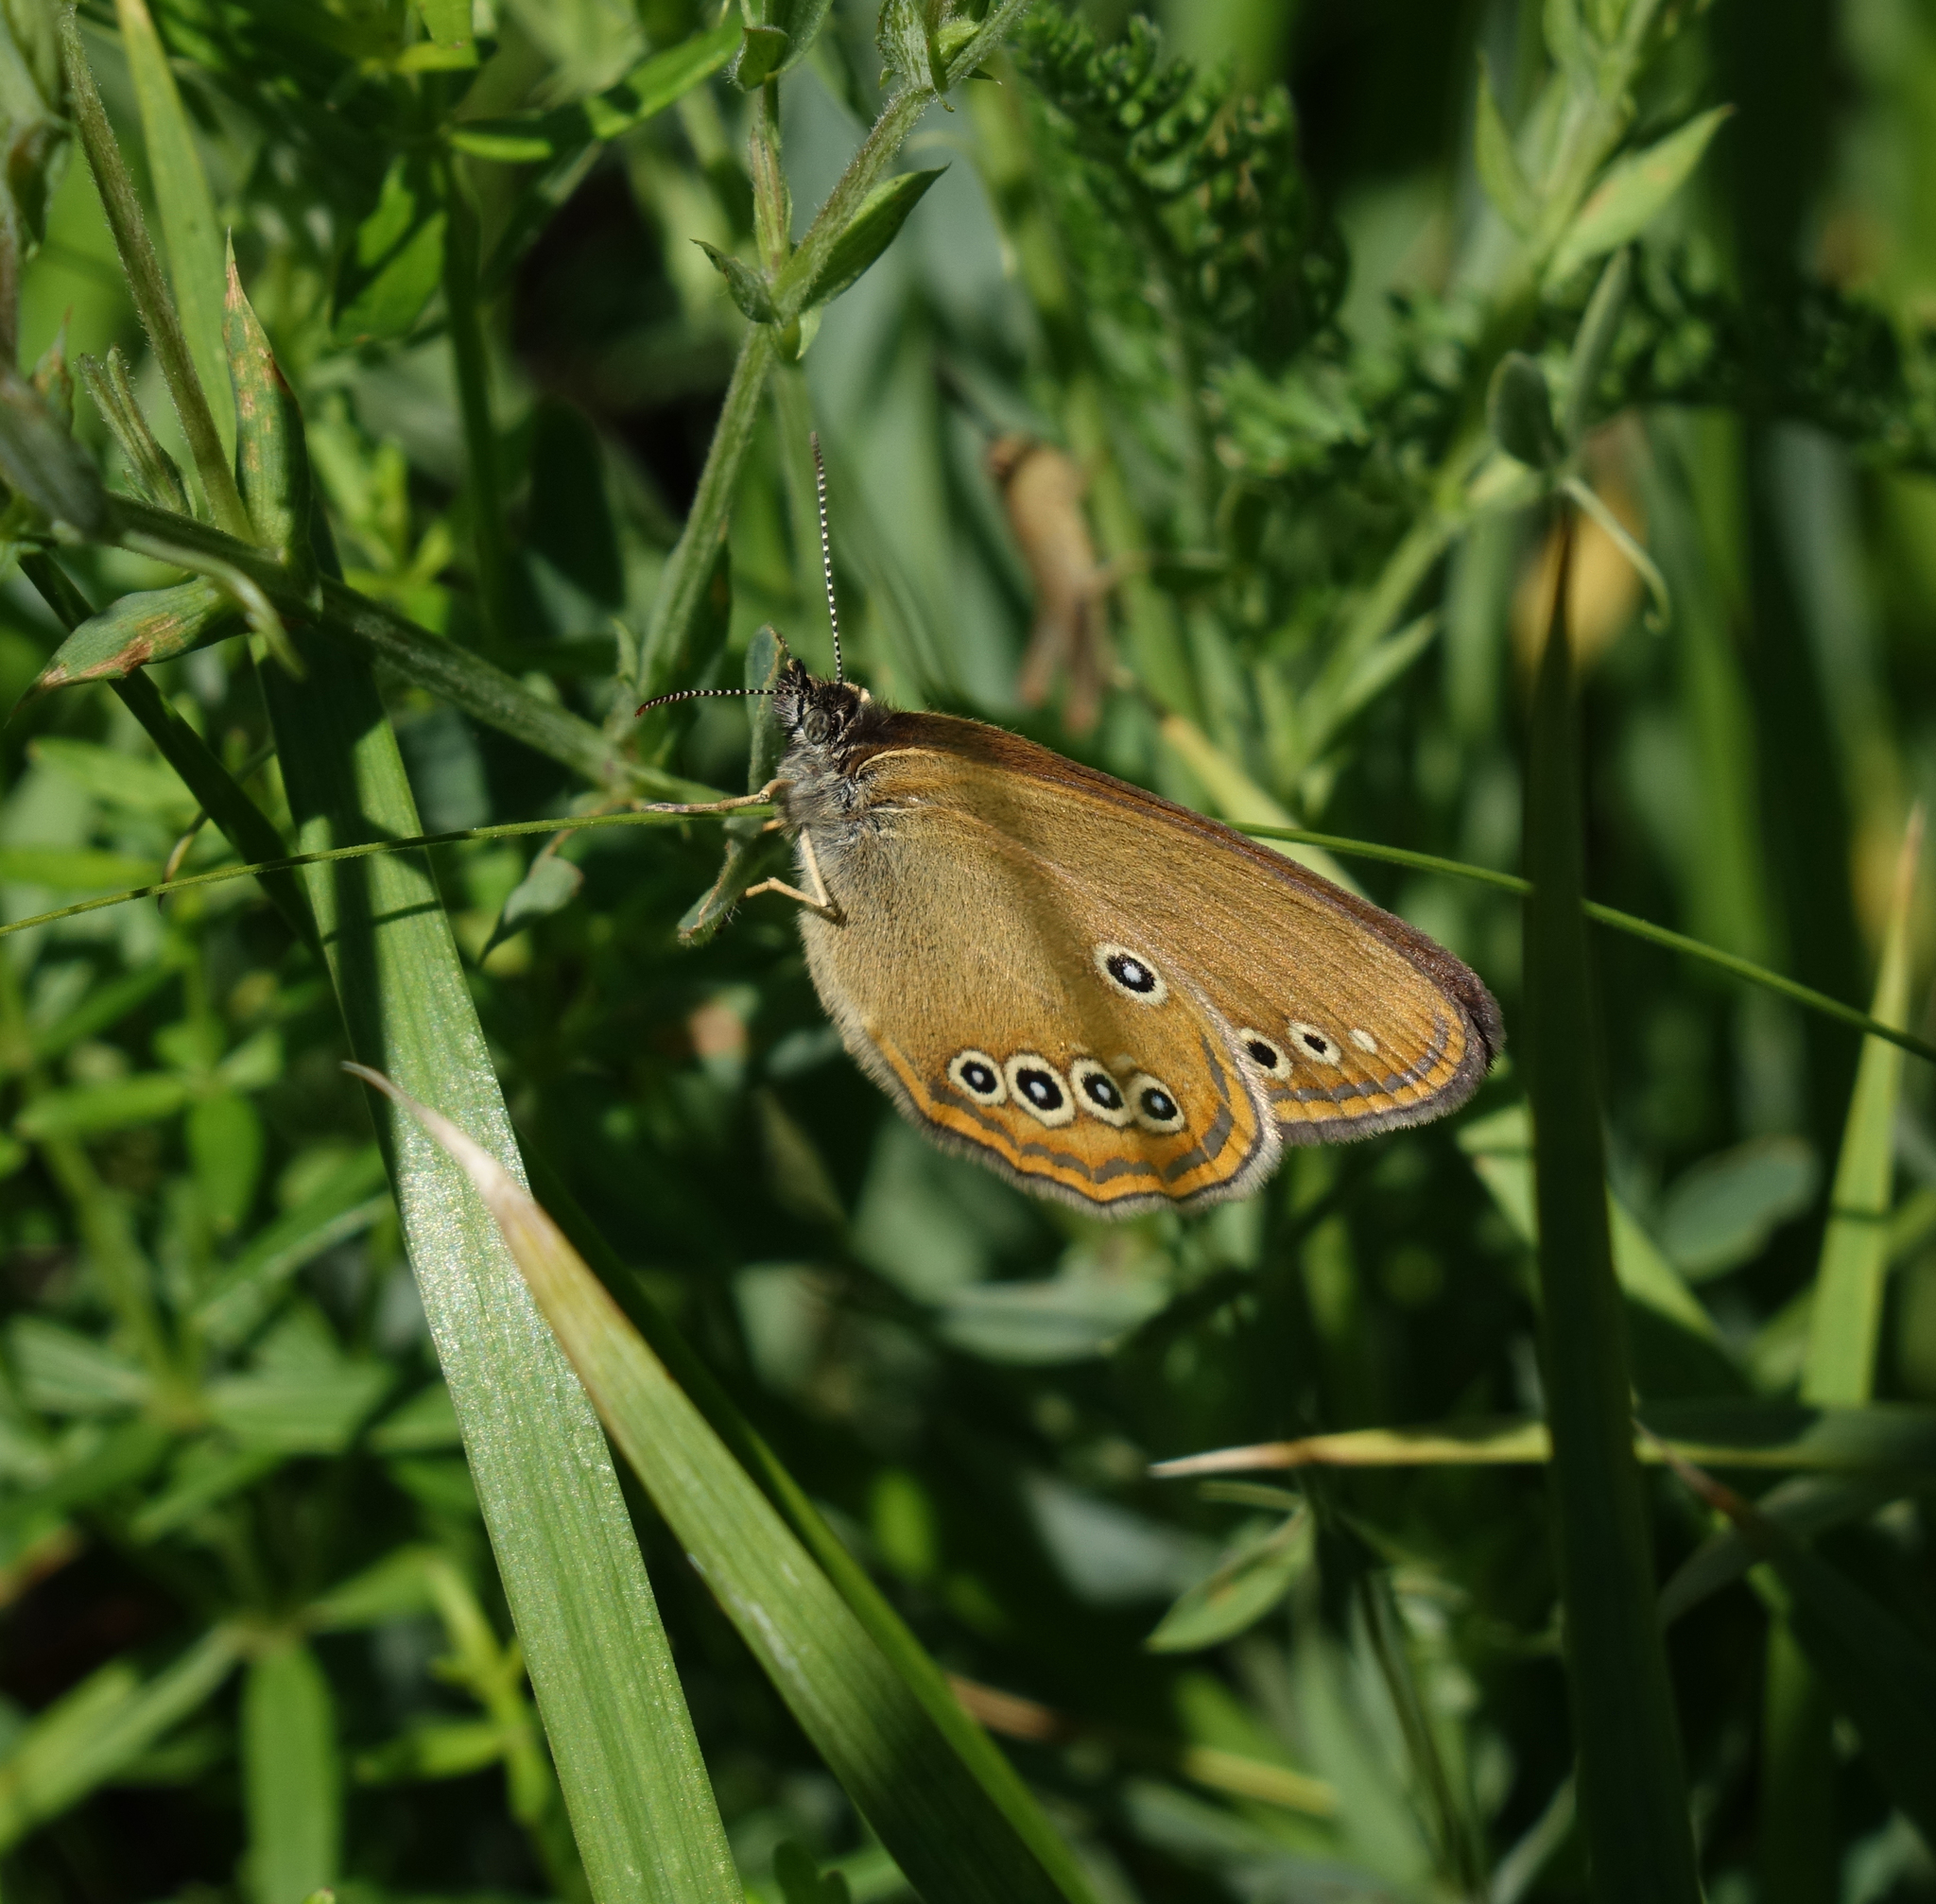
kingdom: Animalia
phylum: Arthropoda
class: Insecta
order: Lepidoptera
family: Nymphalidae
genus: Coenonympha
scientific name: Coenonympha oedippus
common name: False ringlet
